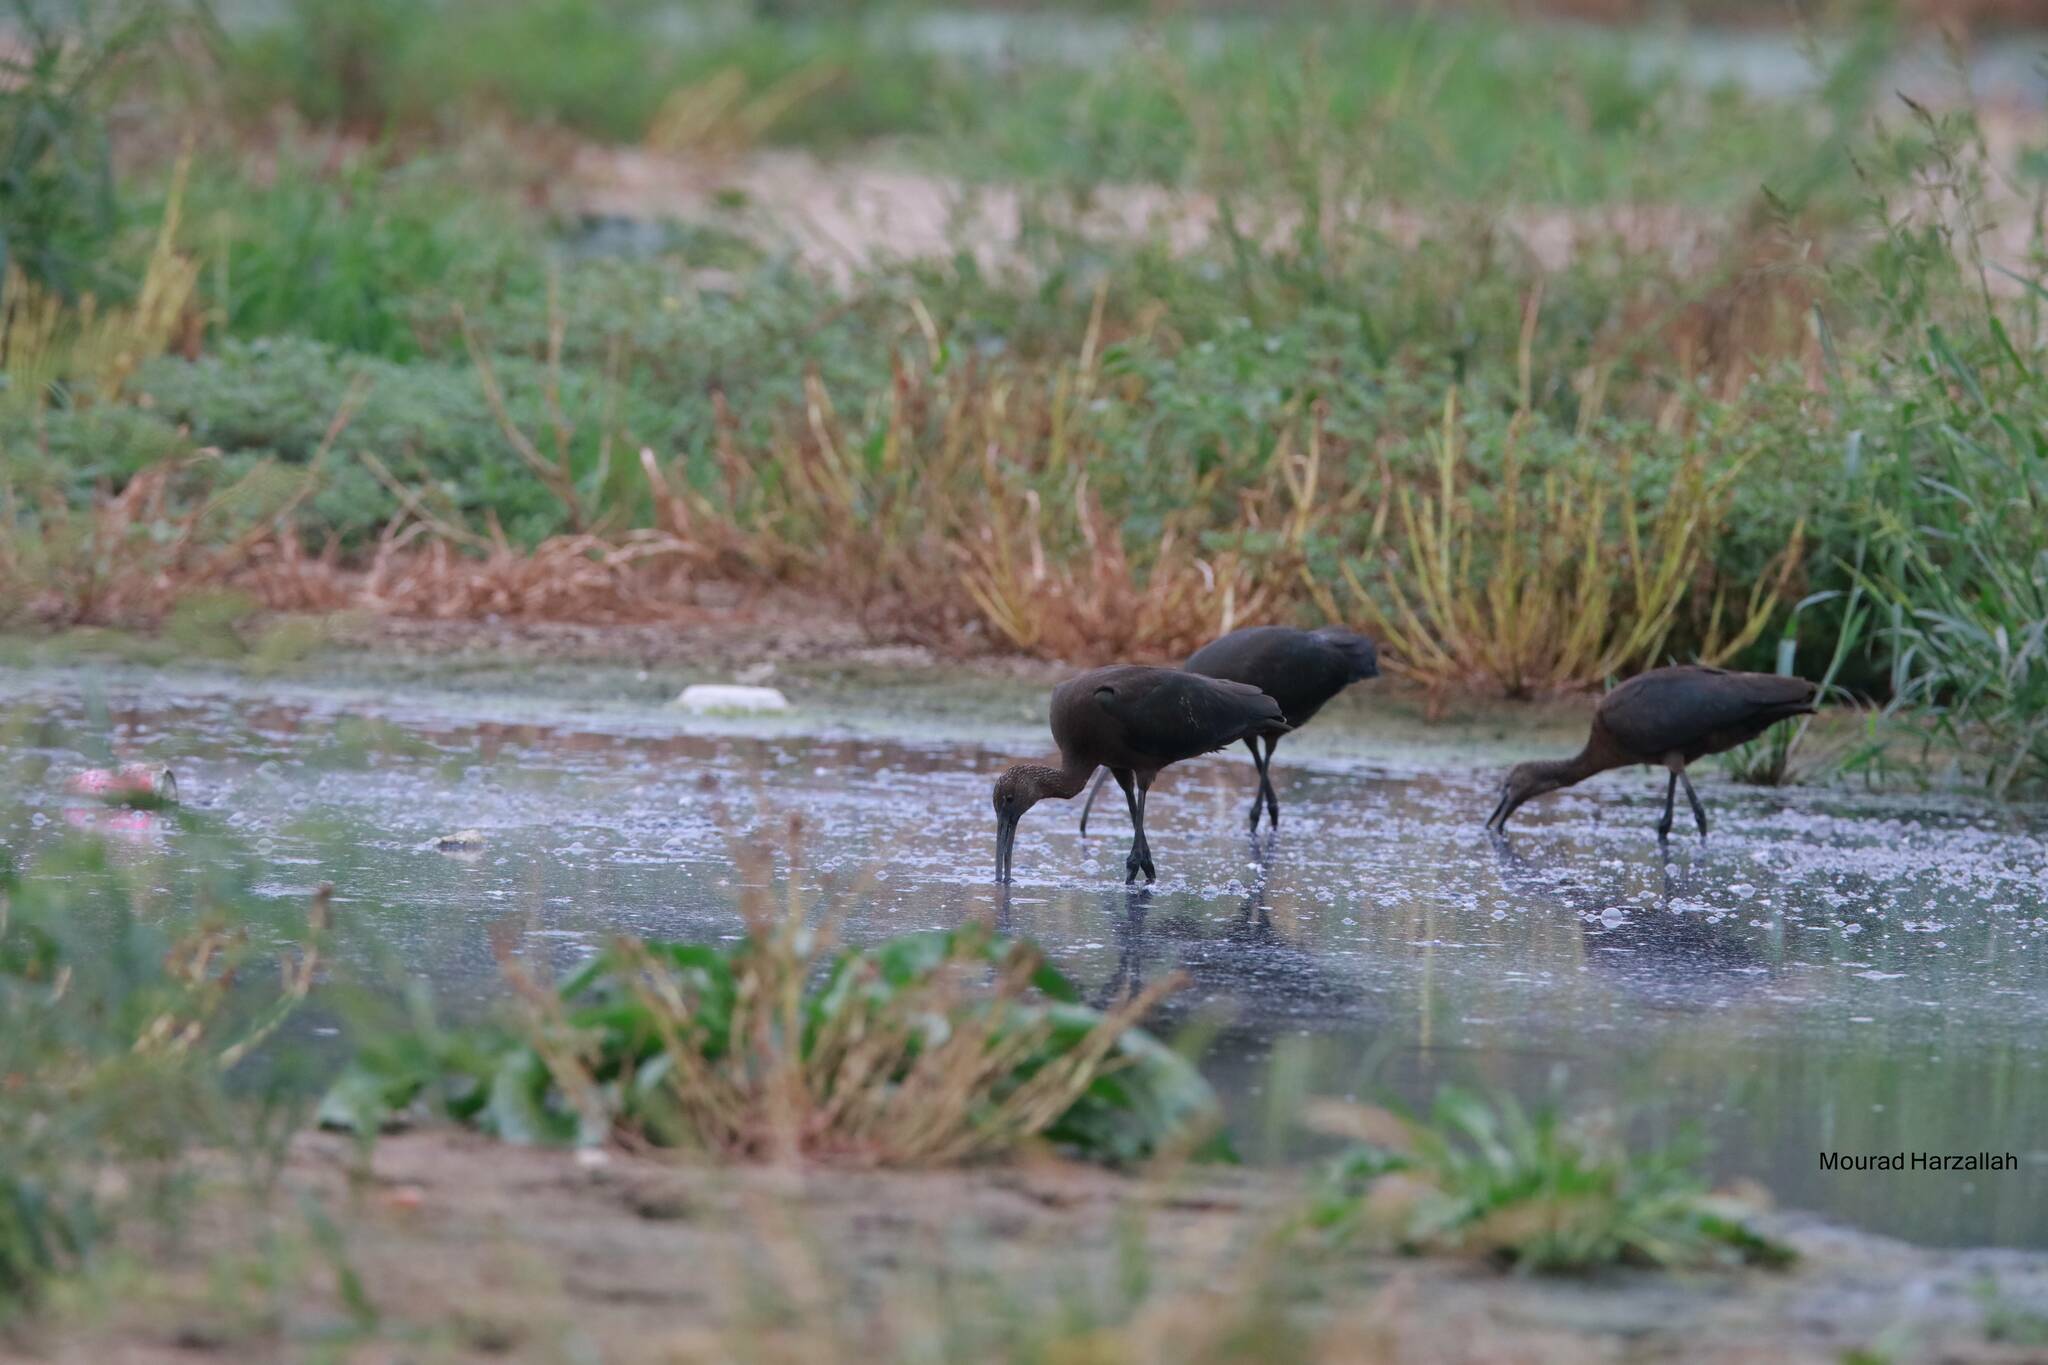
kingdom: Animalia
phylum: Chordata
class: Aves
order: Pelecaniformes
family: Threskiornithidae
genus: Plegadis
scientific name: Plegadis falcinellus
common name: Glossy ibis
